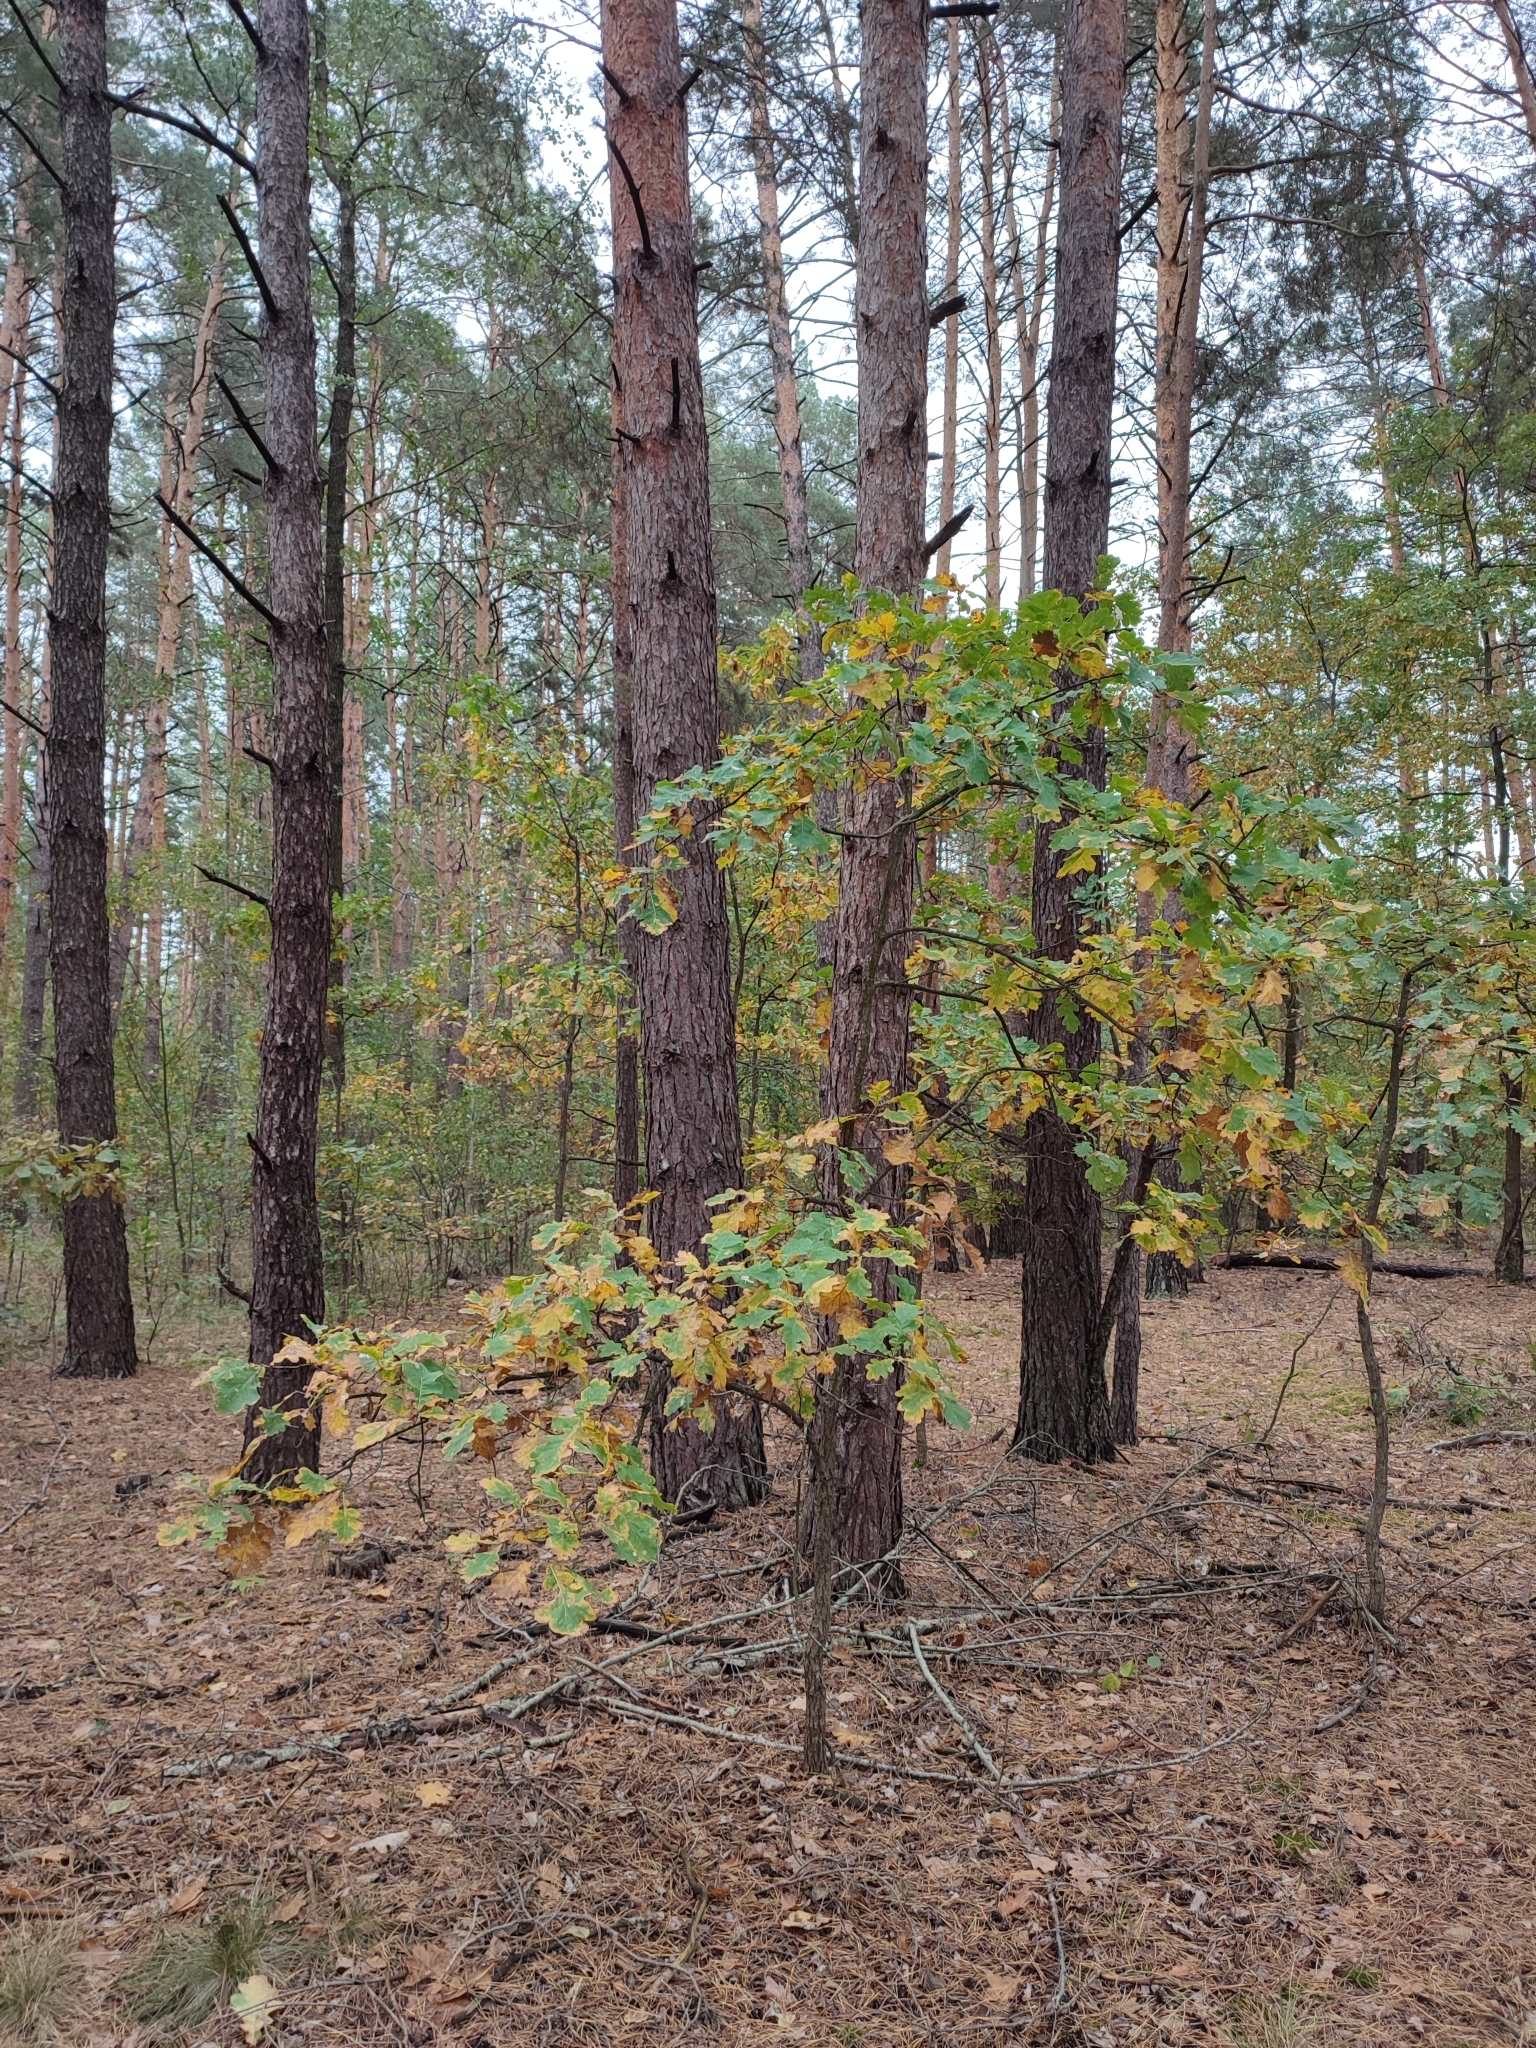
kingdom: Plantae
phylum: Tracheophyta
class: Magnoliopsida
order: Fagales
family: Fagaceae
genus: Quercus
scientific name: Quercus robur
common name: Pedunculate oak
